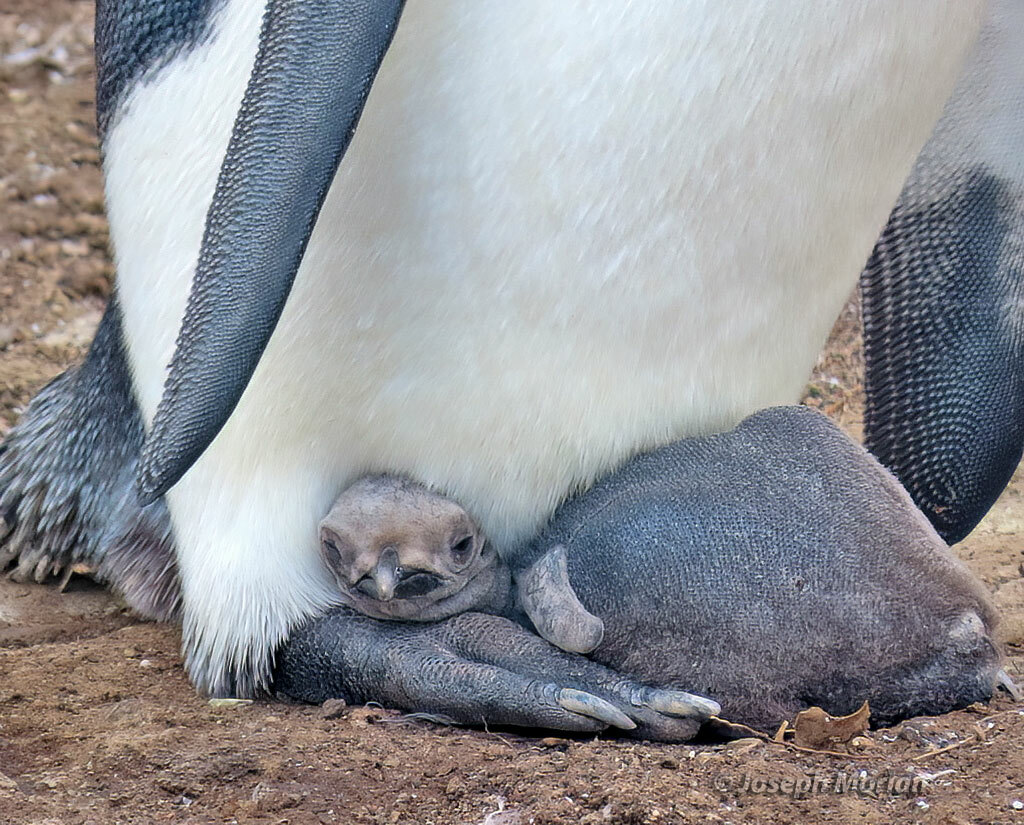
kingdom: Animalia
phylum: Chordata
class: Aves
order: Sphenisciformes
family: Spheniscidae
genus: Aptenodytes
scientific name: Aptenodytes patagonicus
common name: King penguin
